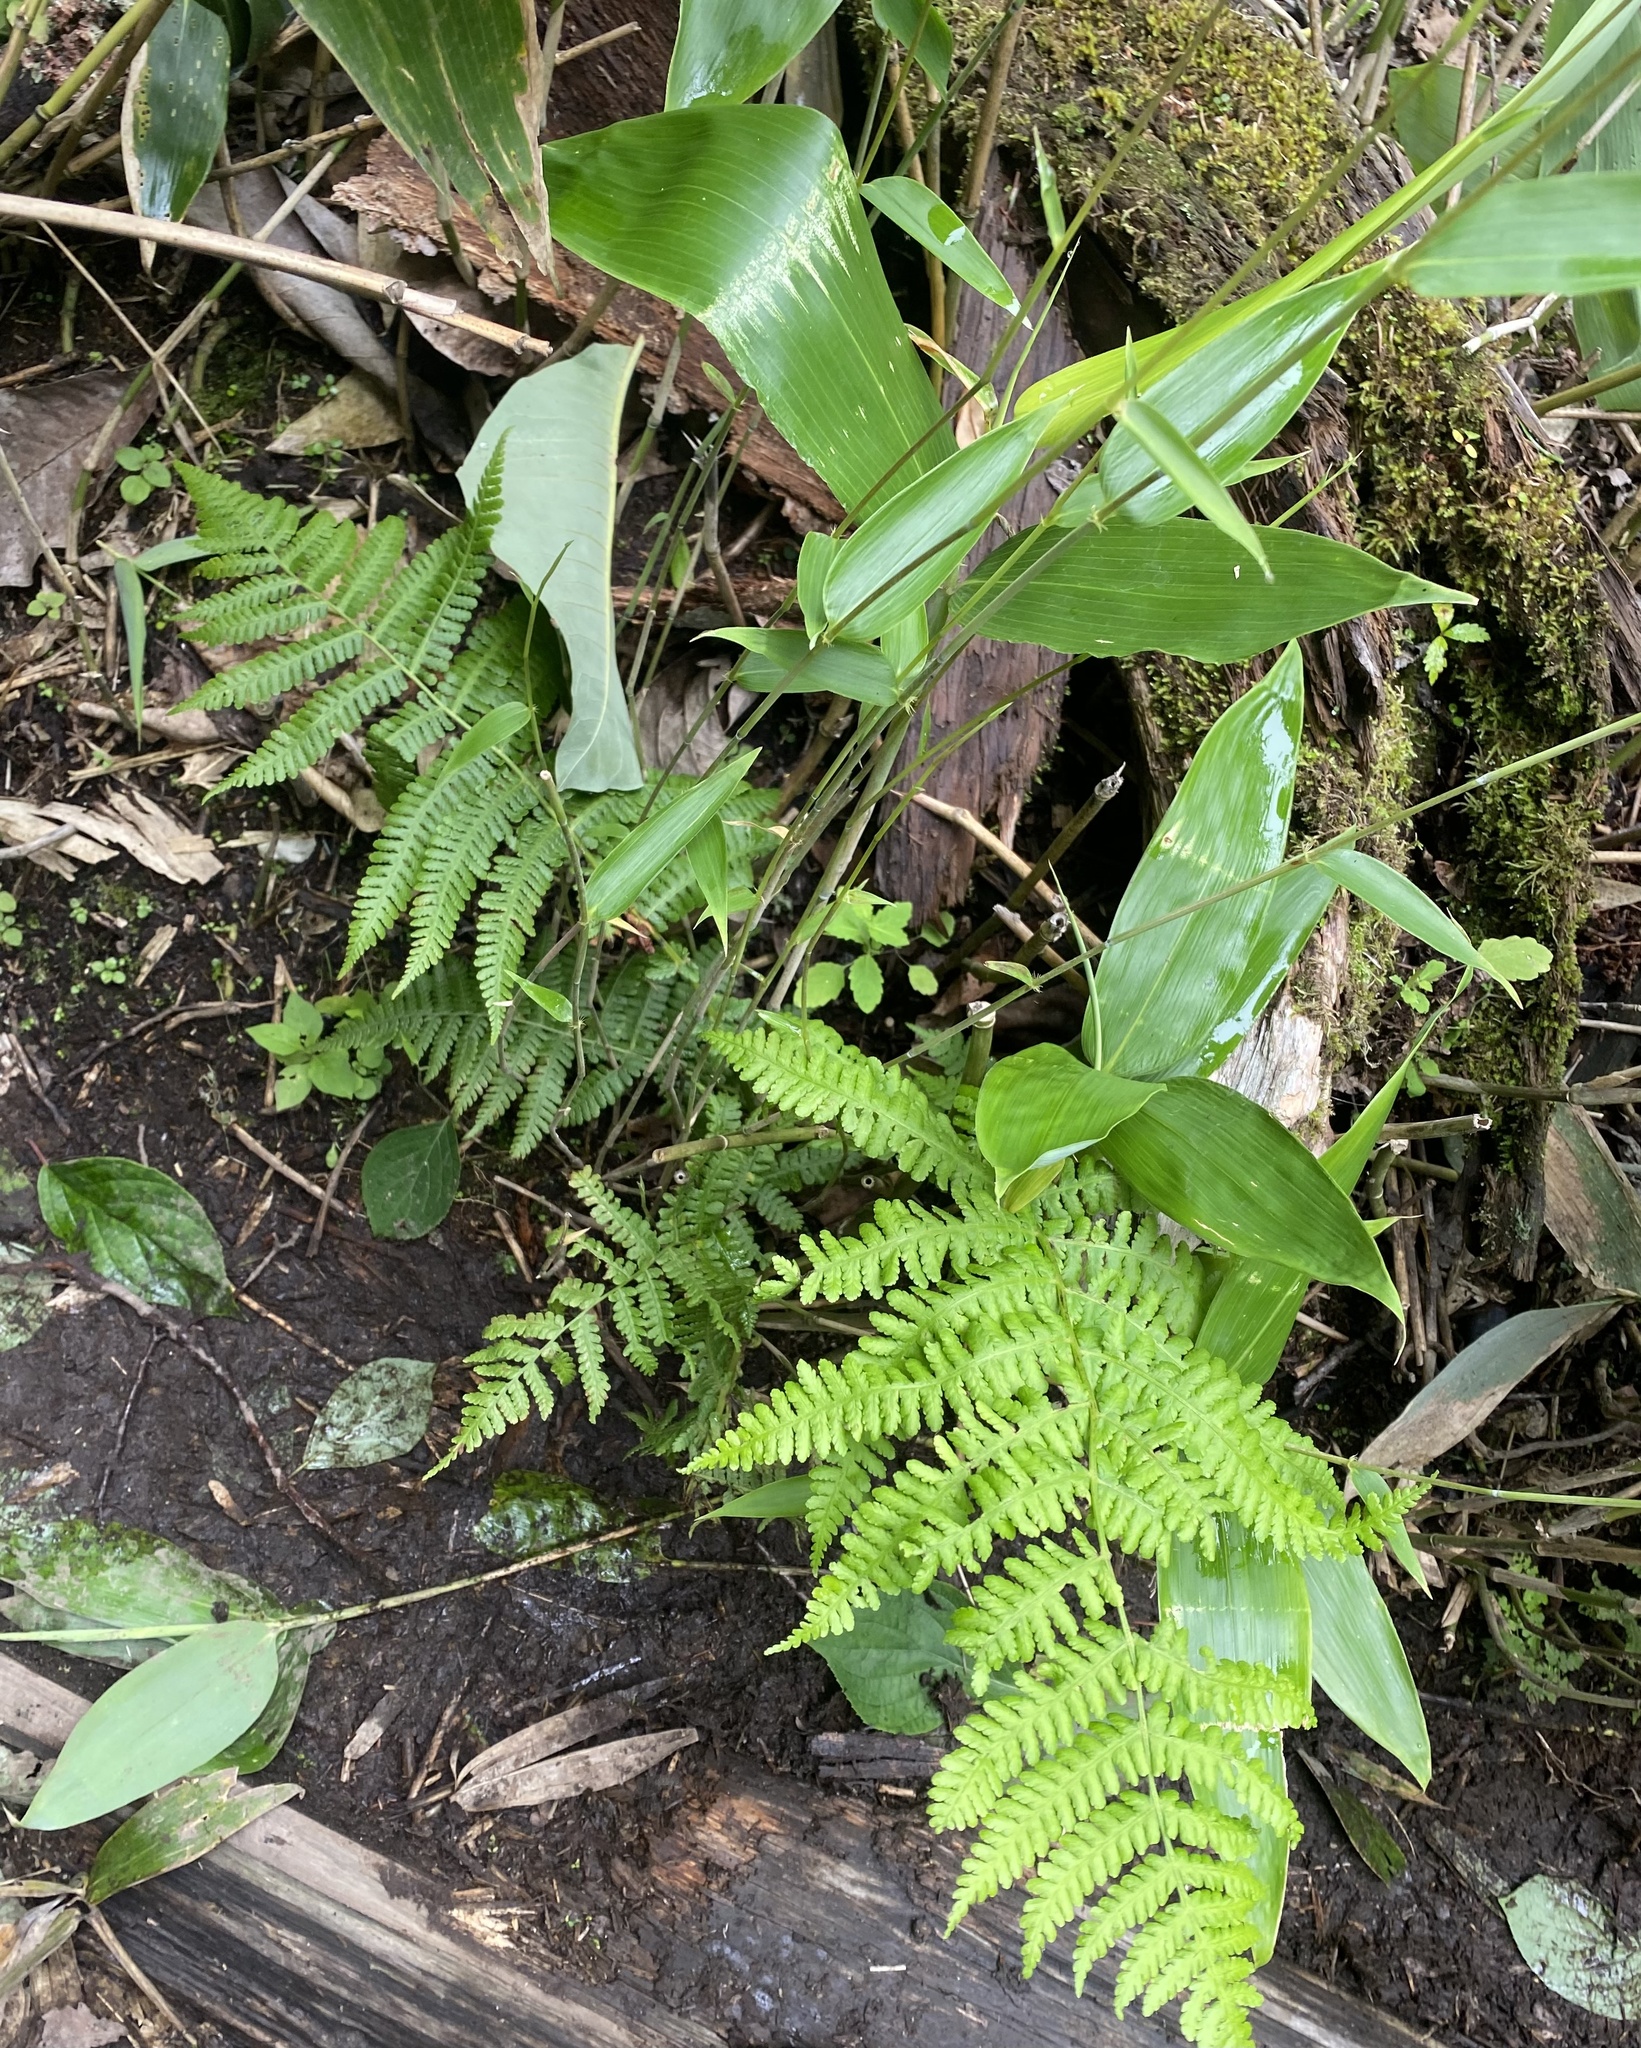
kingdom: Plantae
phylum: Tracheophyta
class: Polypodiopsida
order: Polypodiales
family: Athyriaceae
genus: Deparia
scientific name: Deparia pterorachis
